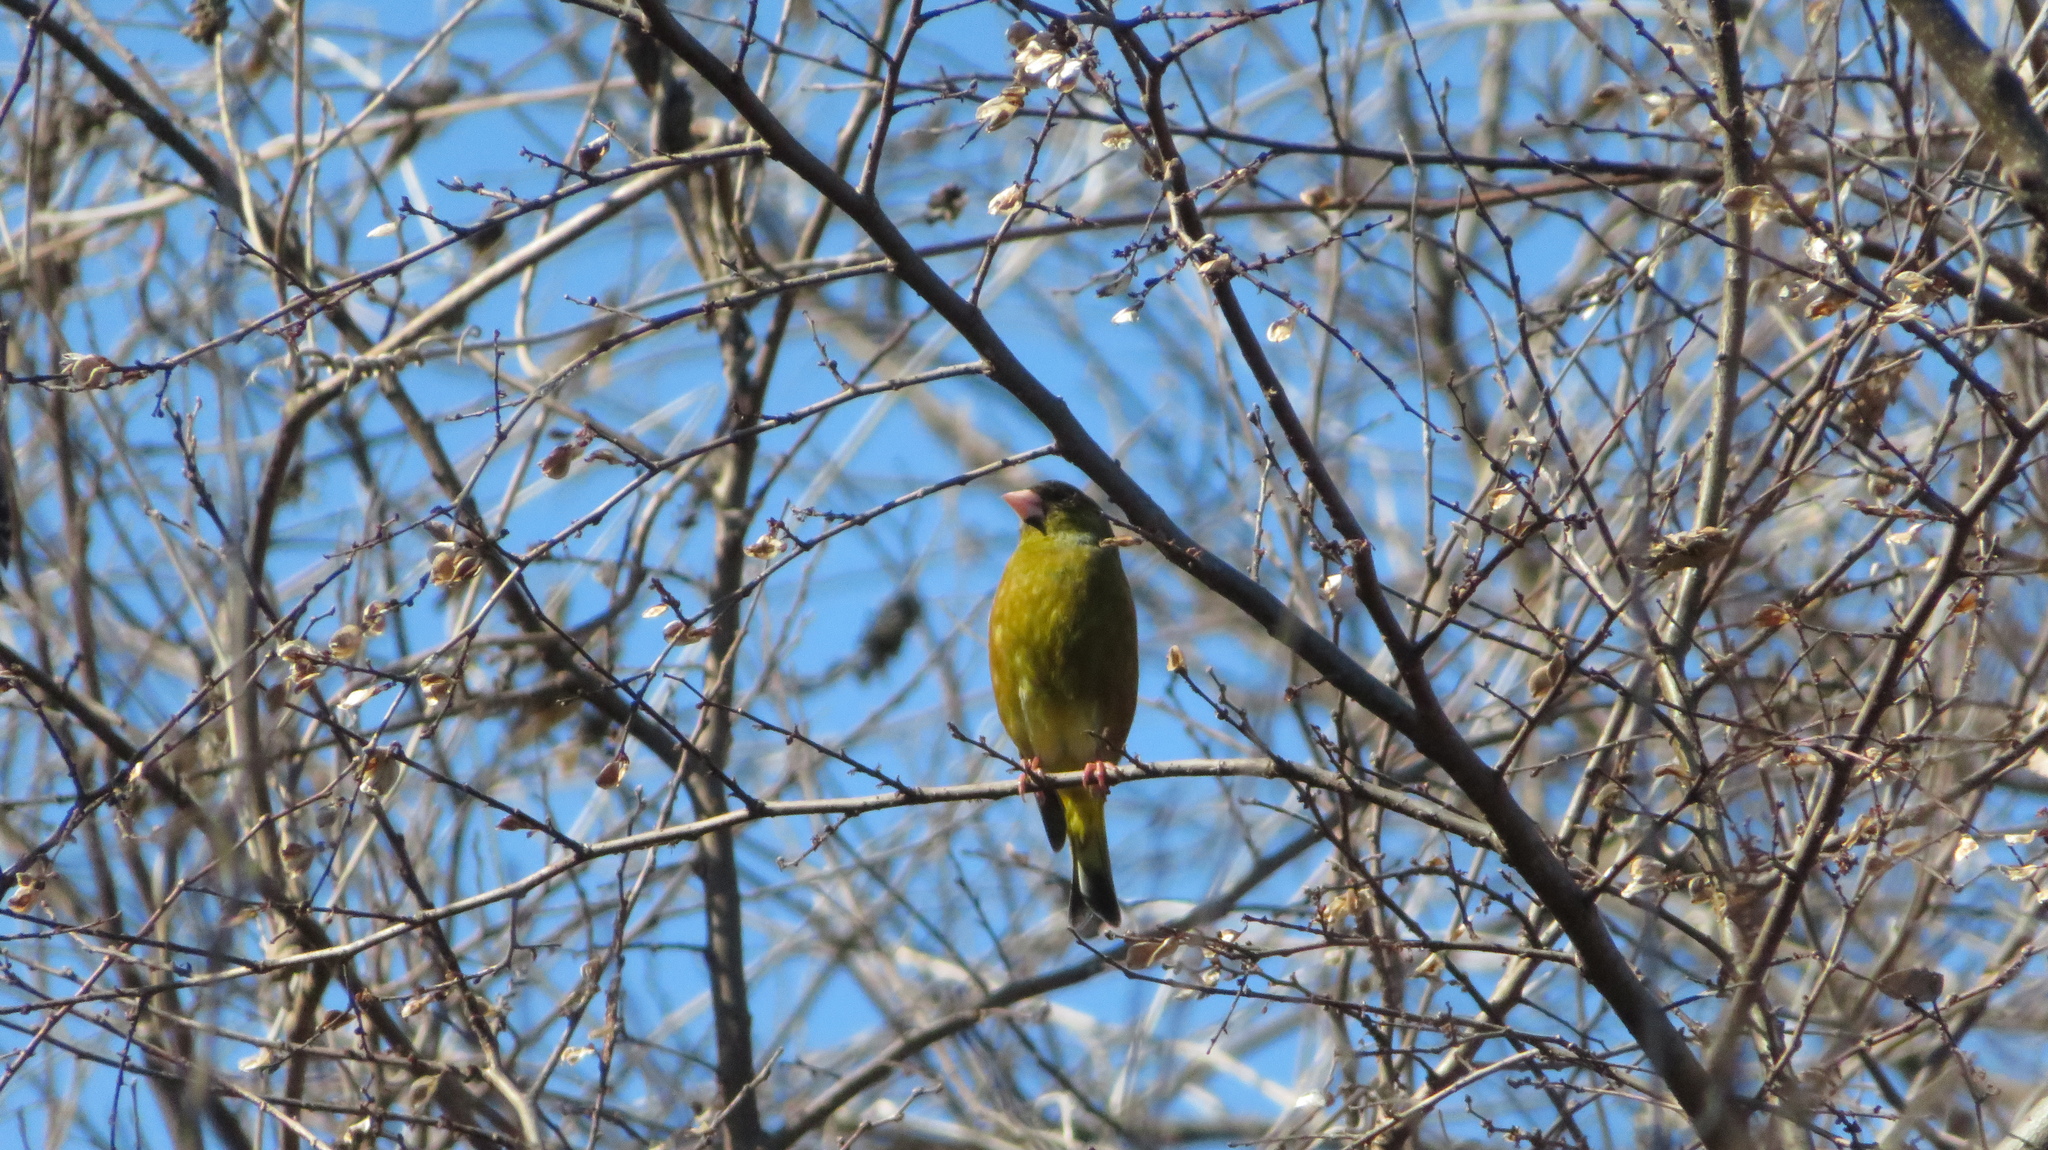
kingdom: Plantae
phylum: Tracheophyta
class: Liliopsida
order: Poales
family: Poaceae
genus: Chloris
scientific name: Chloris sinica
